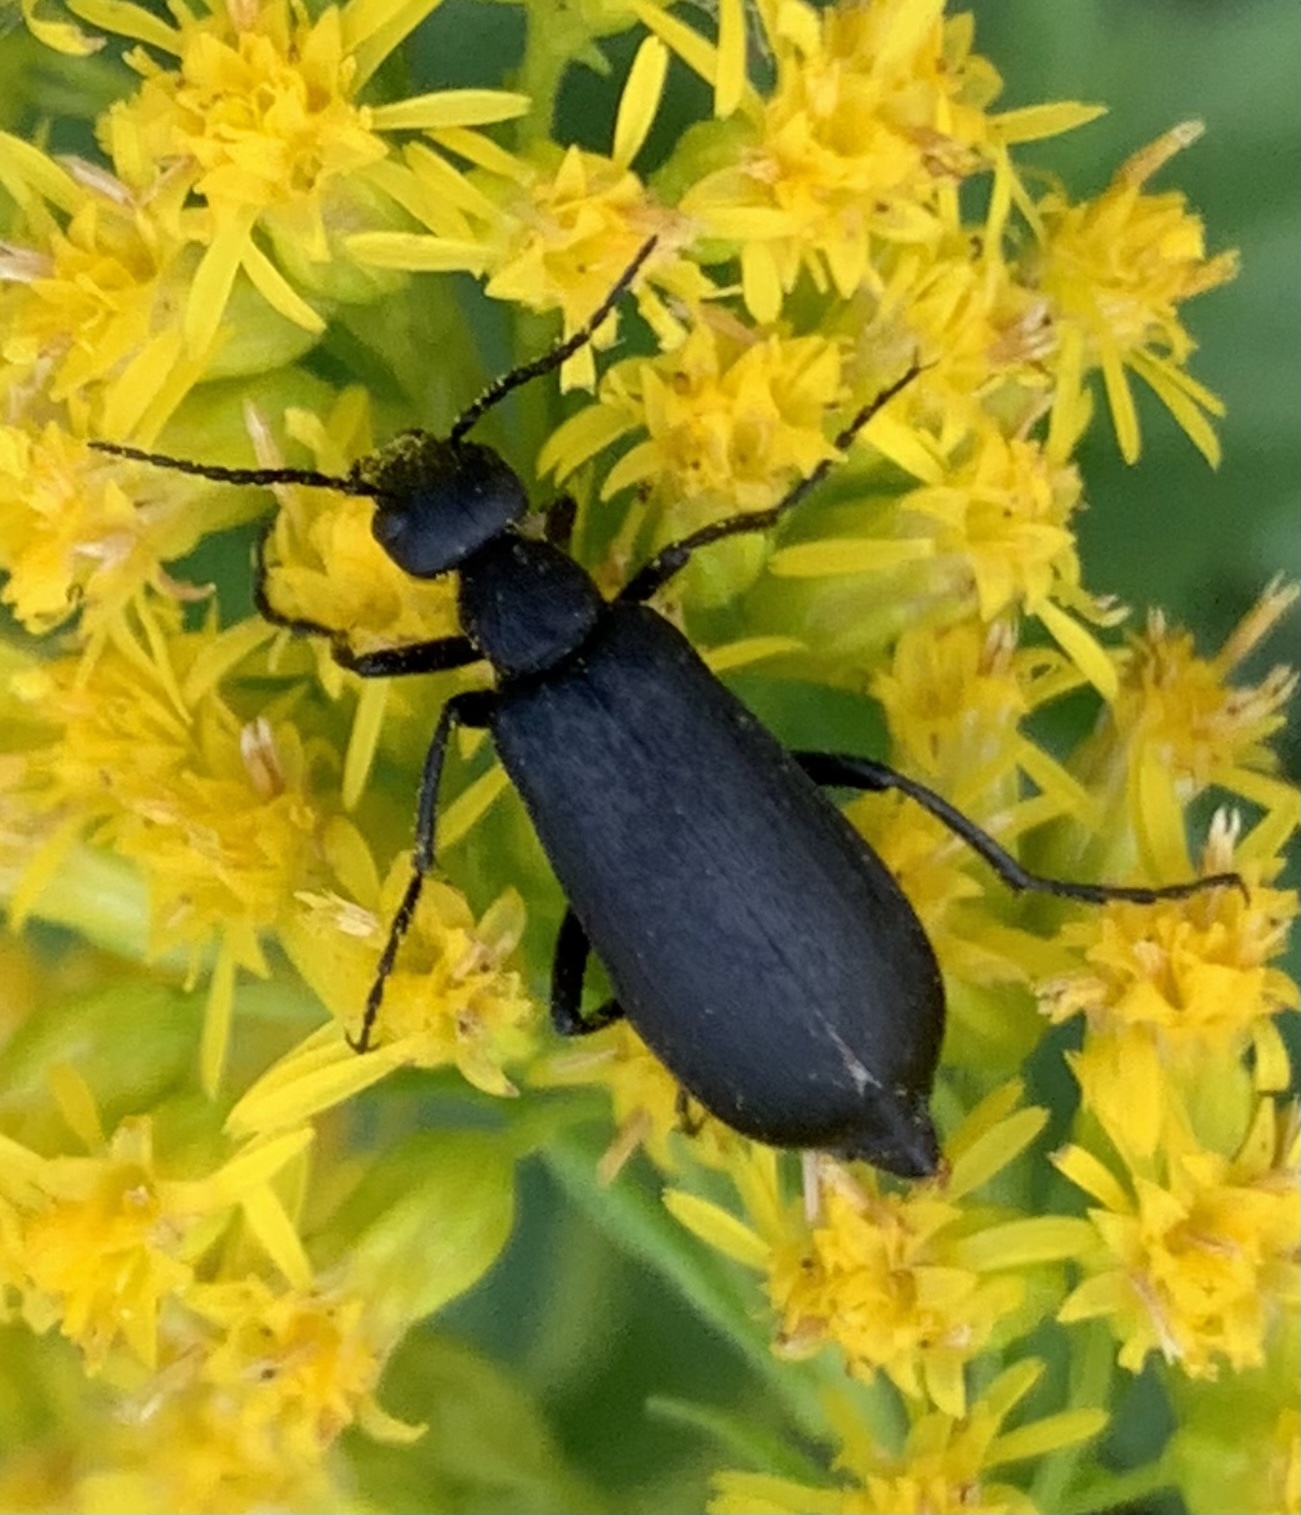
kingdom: Animalia
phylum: Arthropoda
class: Insecta
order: Coleoptera
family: Meloidae
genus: Epicauta
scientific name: Epicauta pensylvanica
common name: Black blister beetle
